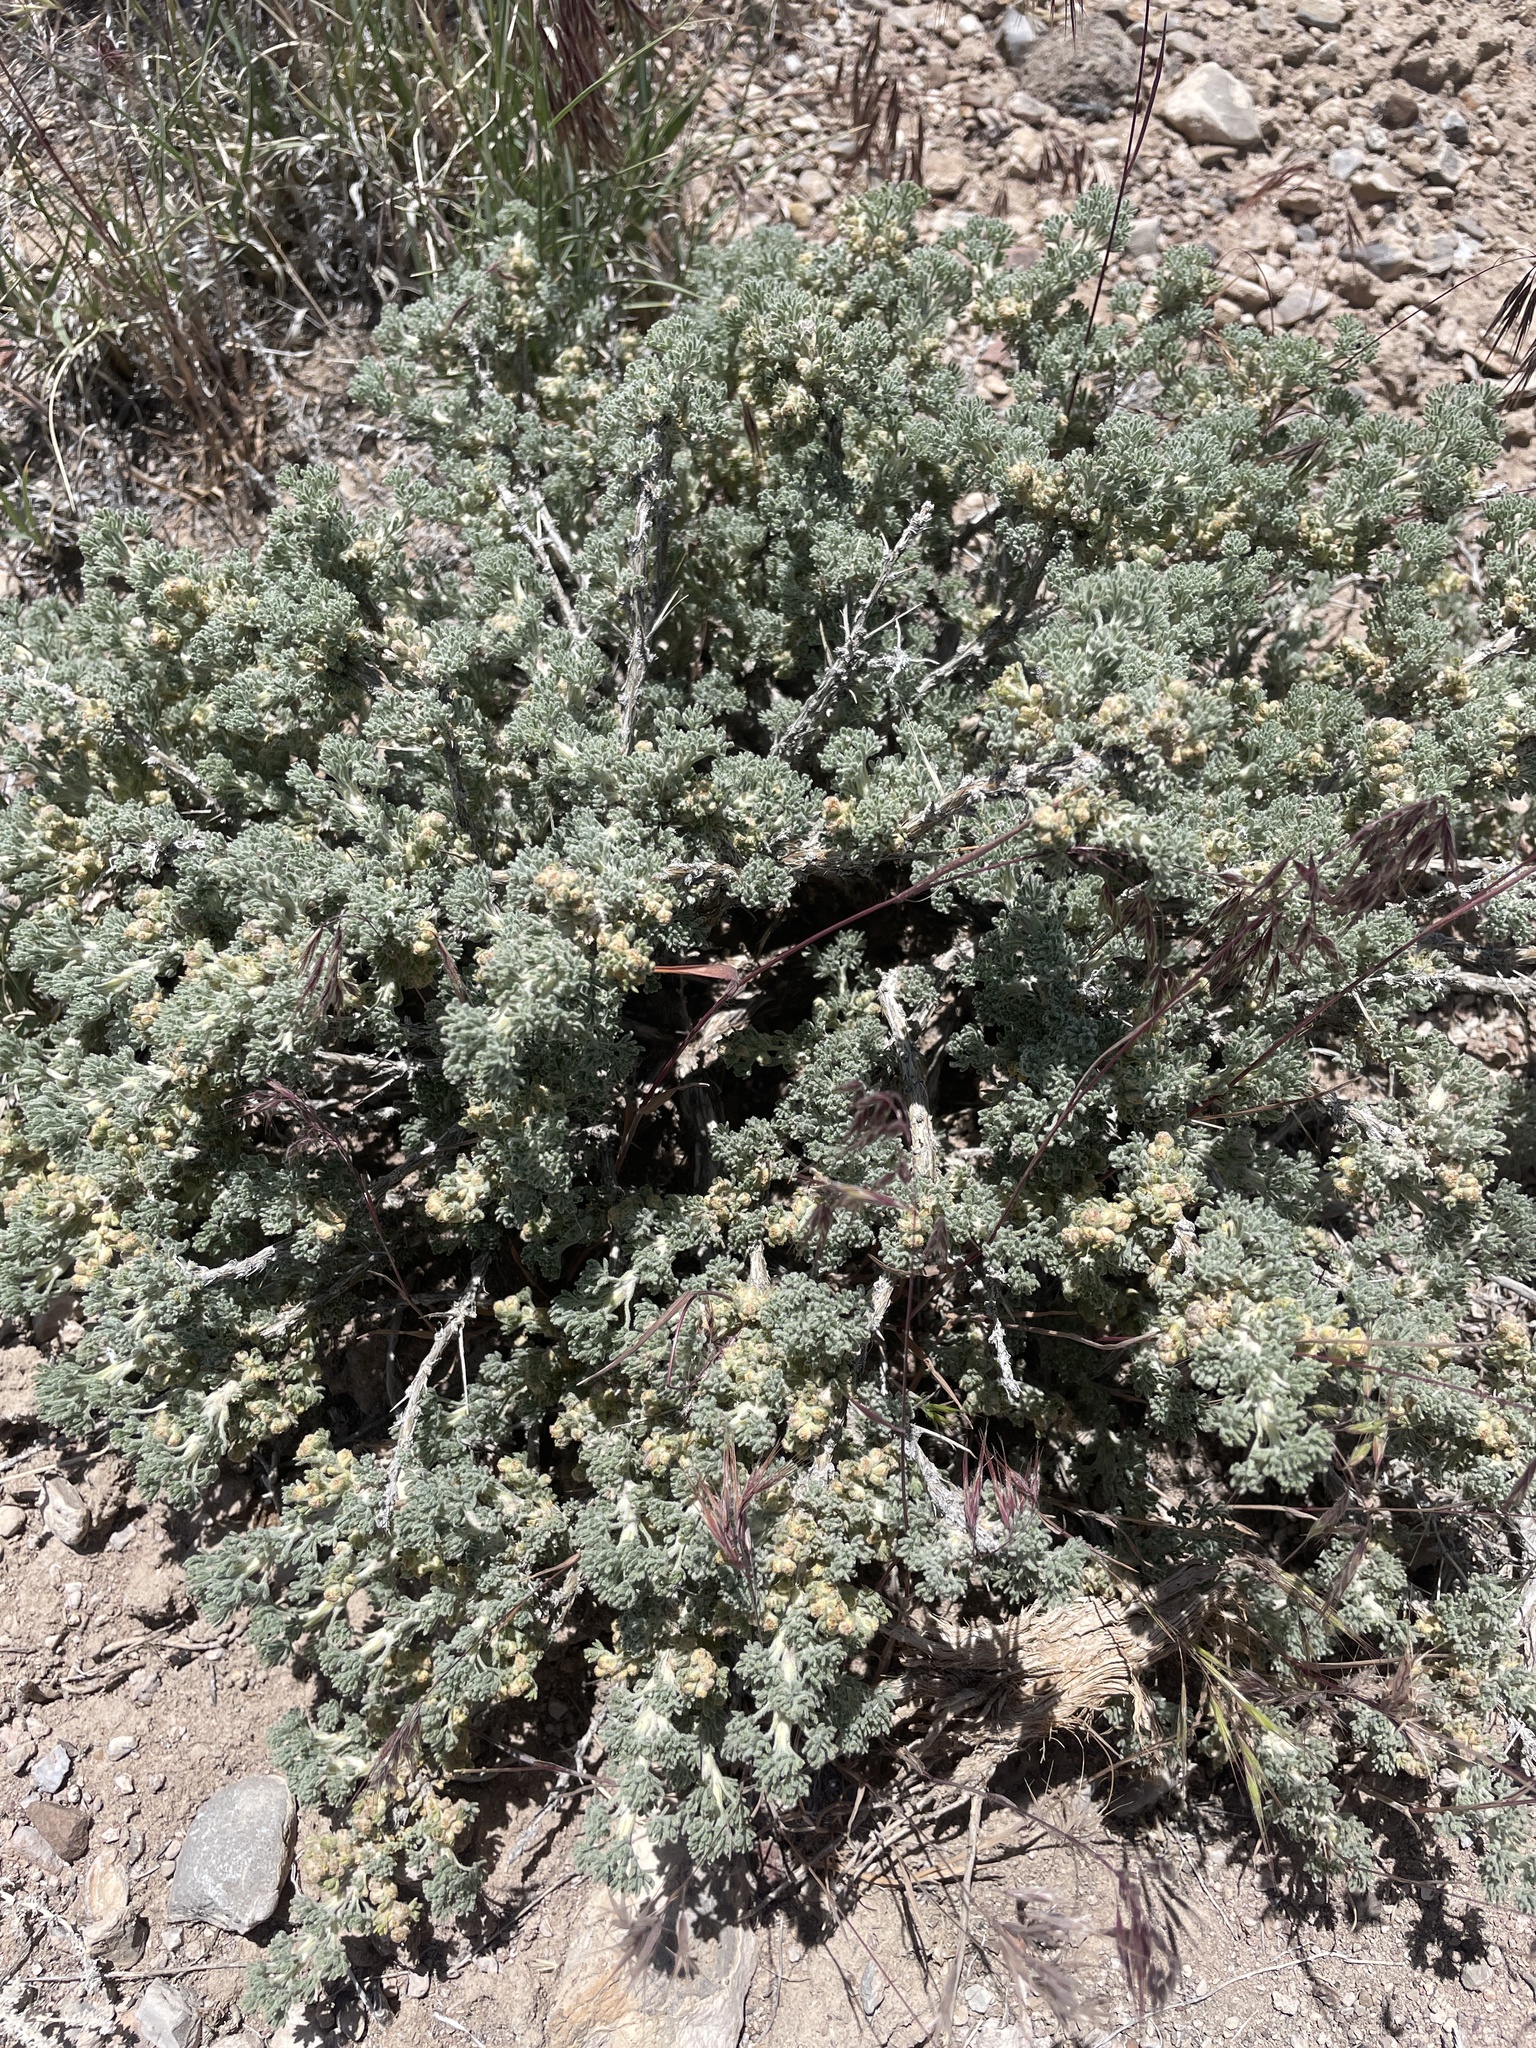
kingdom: Plantae
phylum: Tracheophyta
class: Magnoliopsida
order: Asterales
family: Asteraceae
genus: Artemisia
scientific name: Artemisia spinescens
